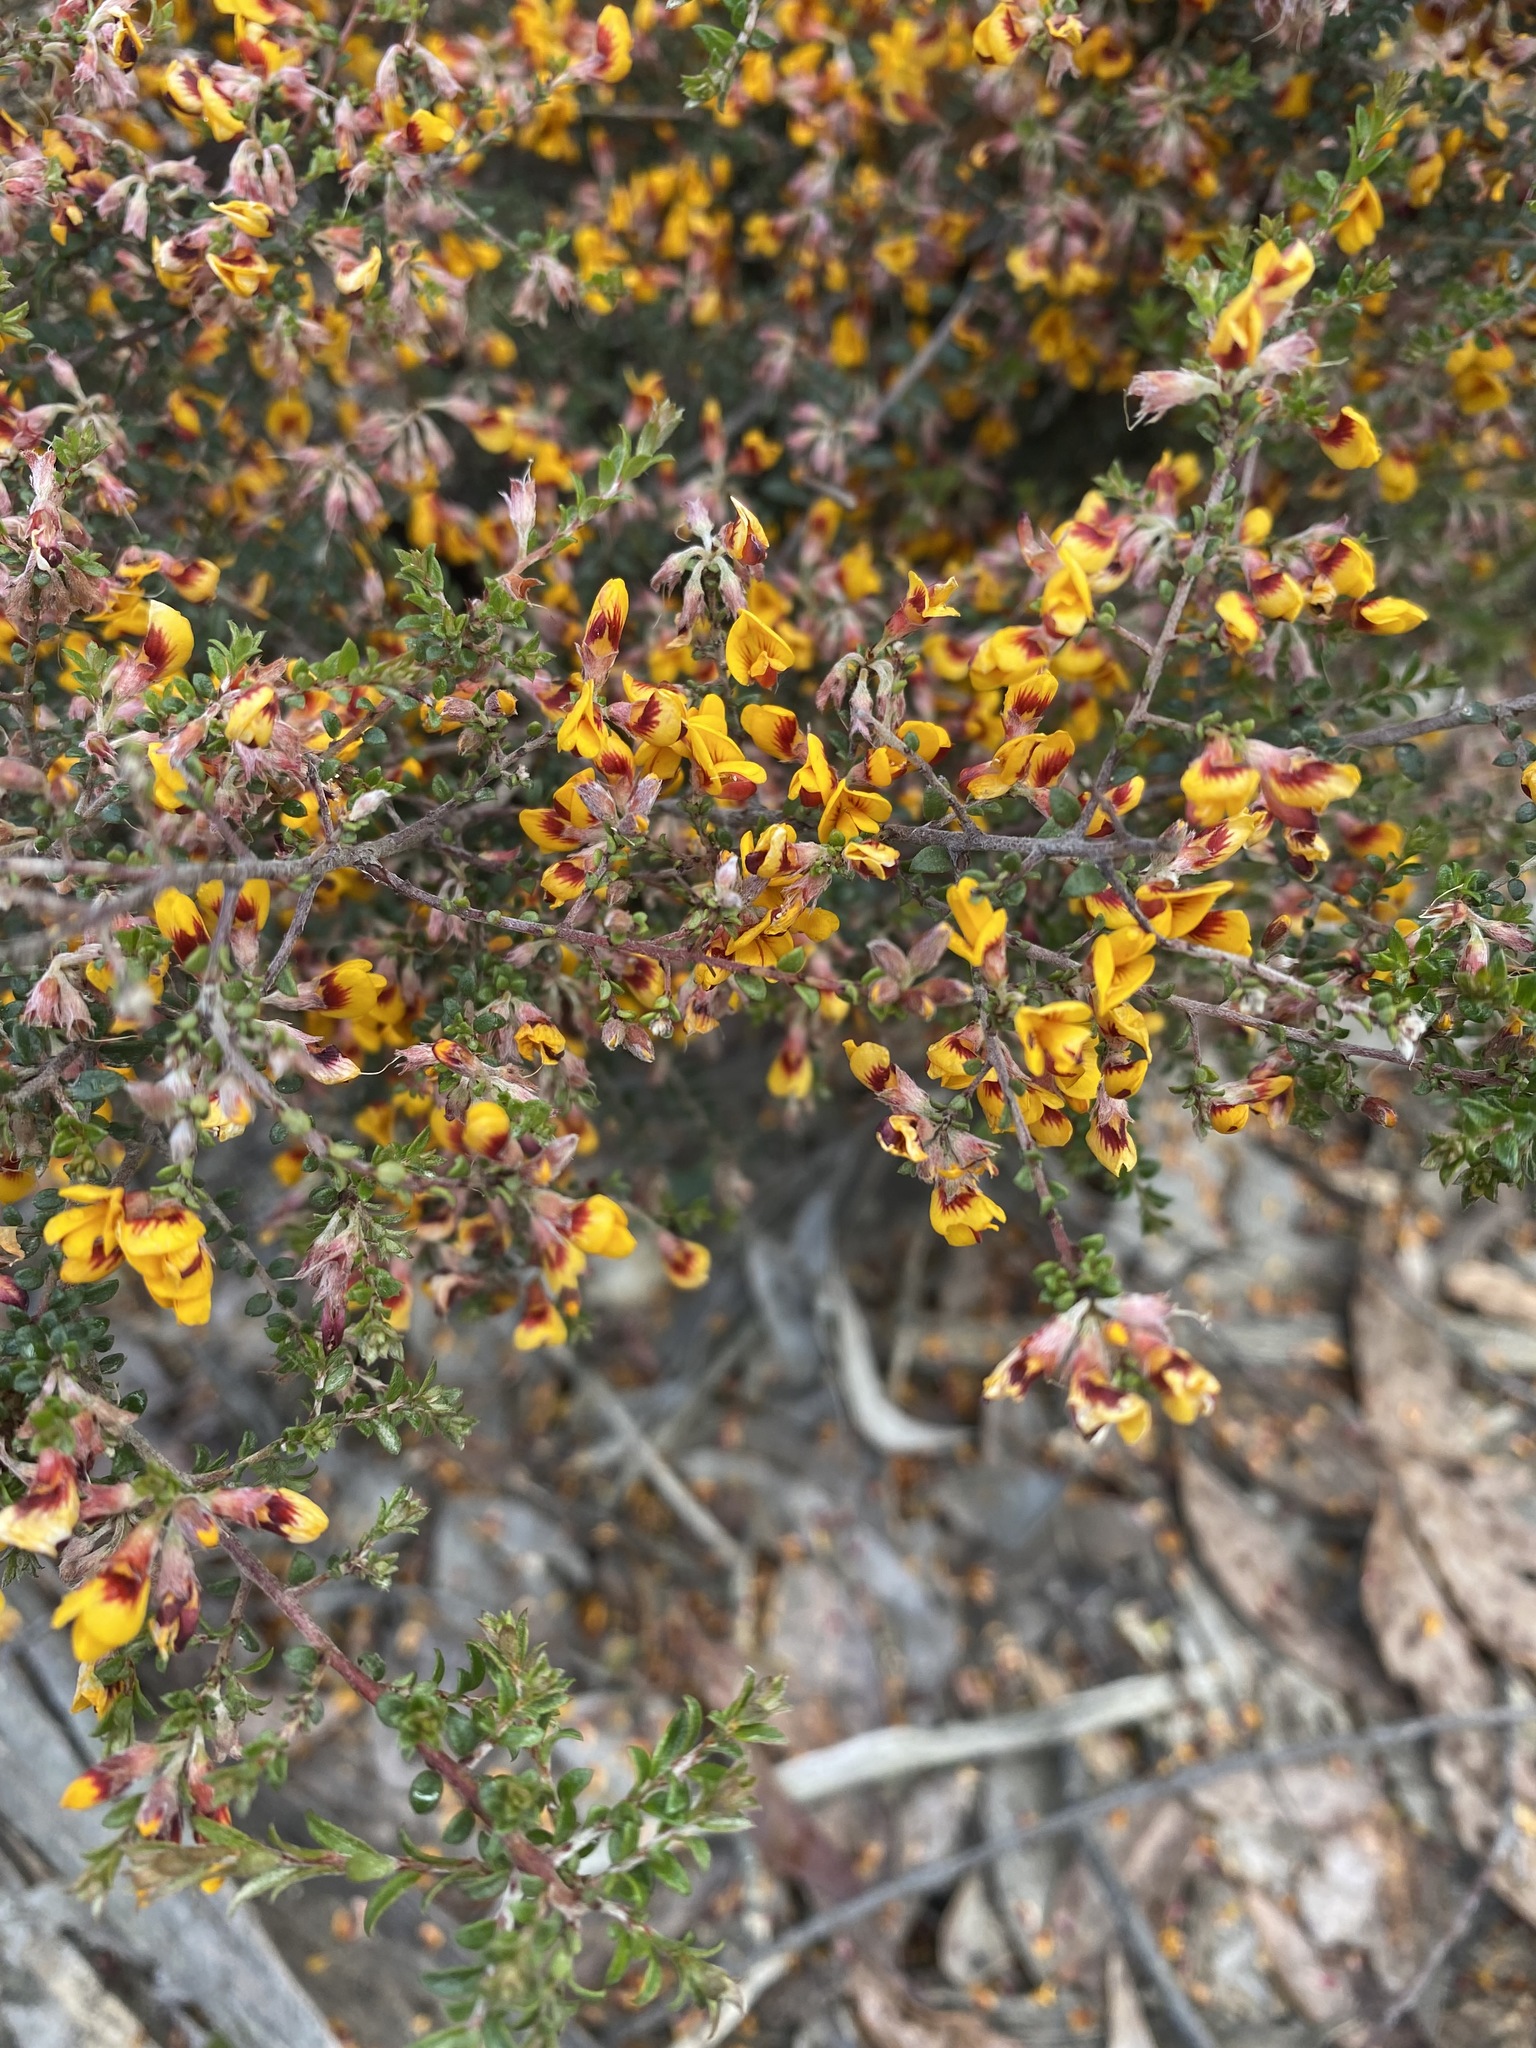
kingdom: Plantae
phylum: Tracheophyta
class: Magnoliopsida
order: Fabales
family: Fabaceae
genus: Pultenaea
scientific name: Pultenaea gunnii
